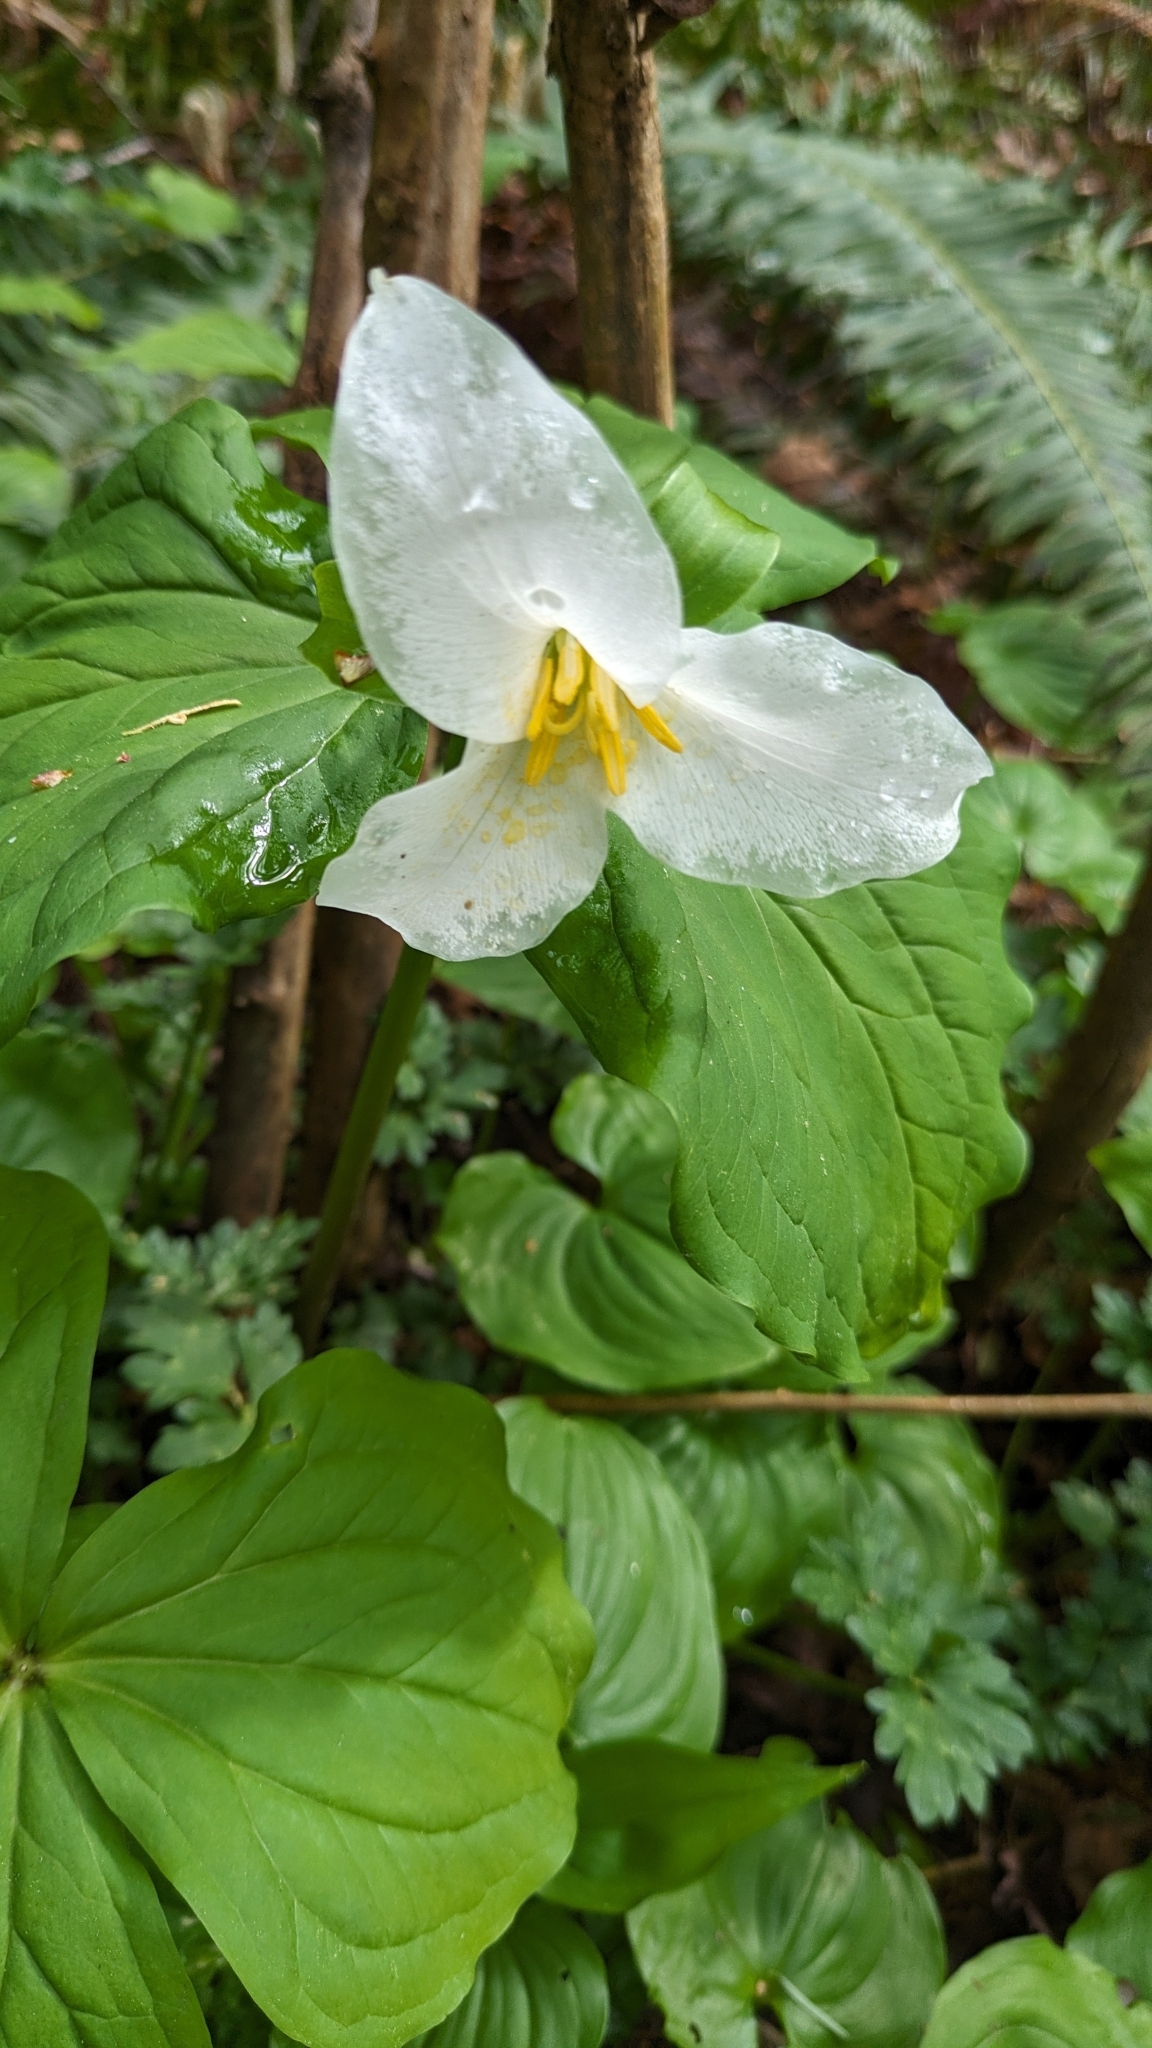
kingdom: Plantae
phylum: Tracheophyta
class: Liliopsida
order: Liliales
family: Melanthiaceae
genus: Trillium
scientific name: Trillium ovatum
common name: Pacific trillium
